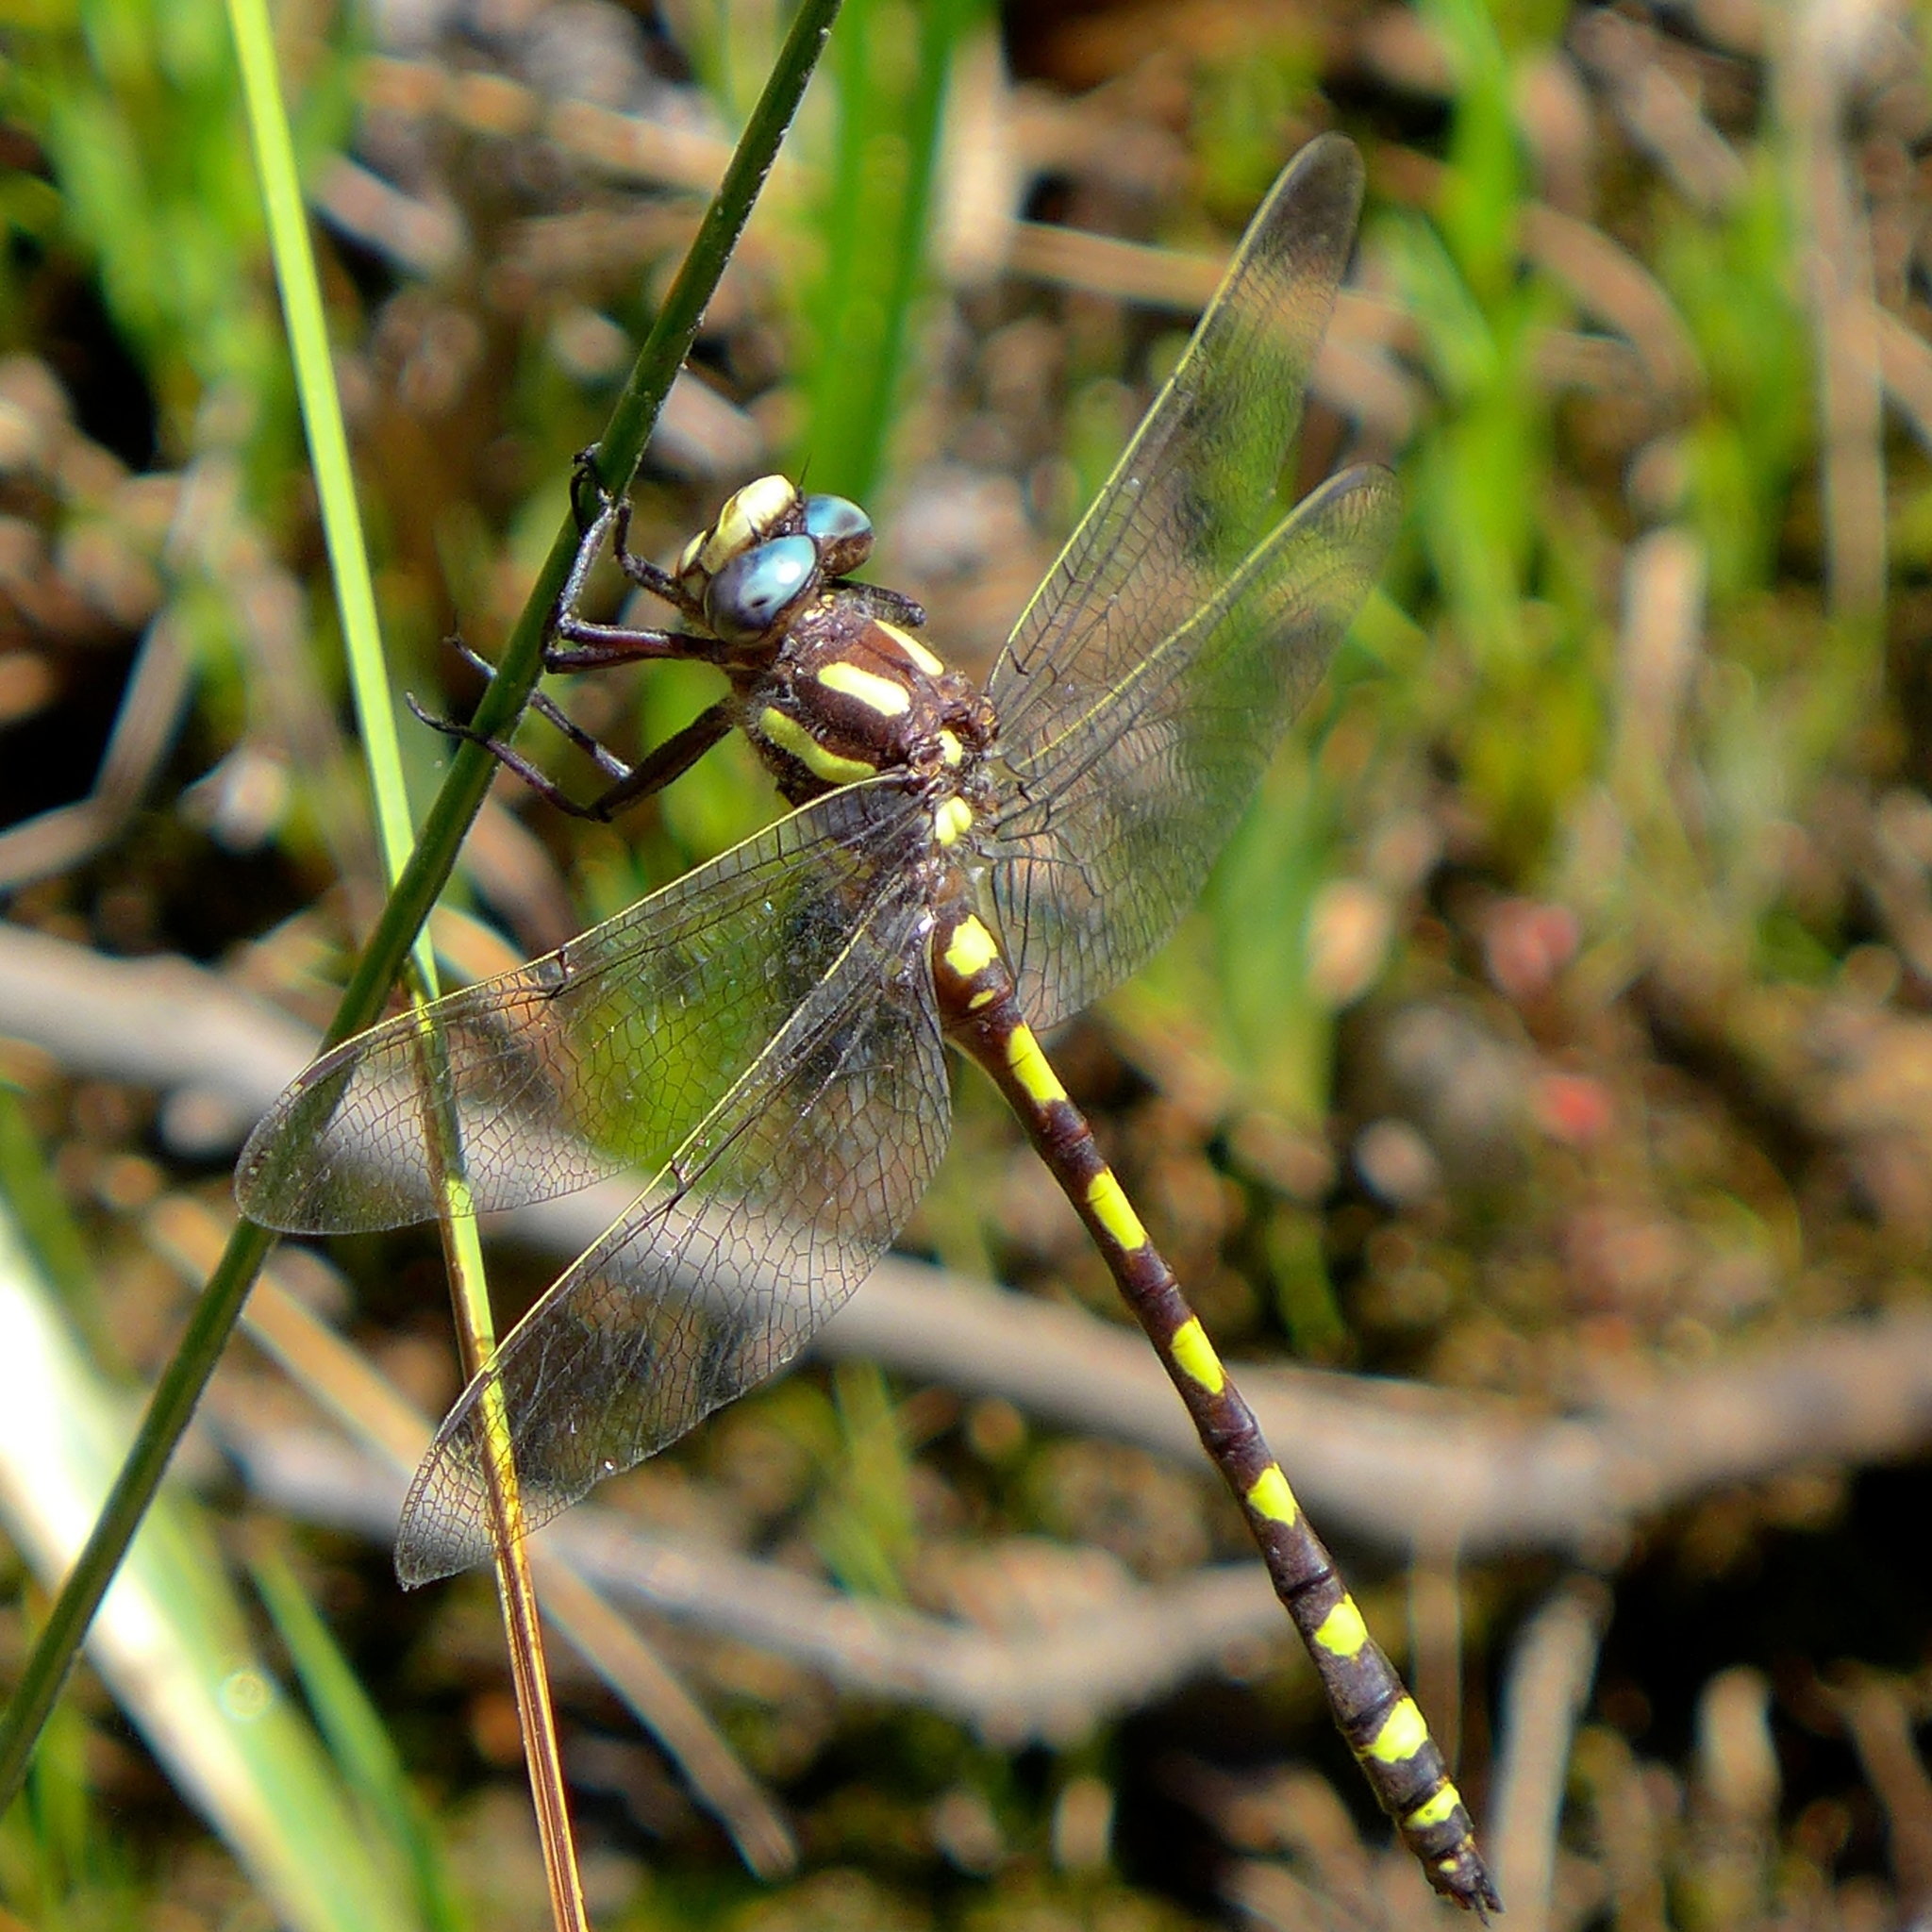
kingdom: Animalia
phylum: Arthropoda
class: Insecta
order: Odonata
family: Cordulegastridae
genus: Cordulegaster
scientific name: Cordulegaster dorsalis
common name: Pacific spiketail
